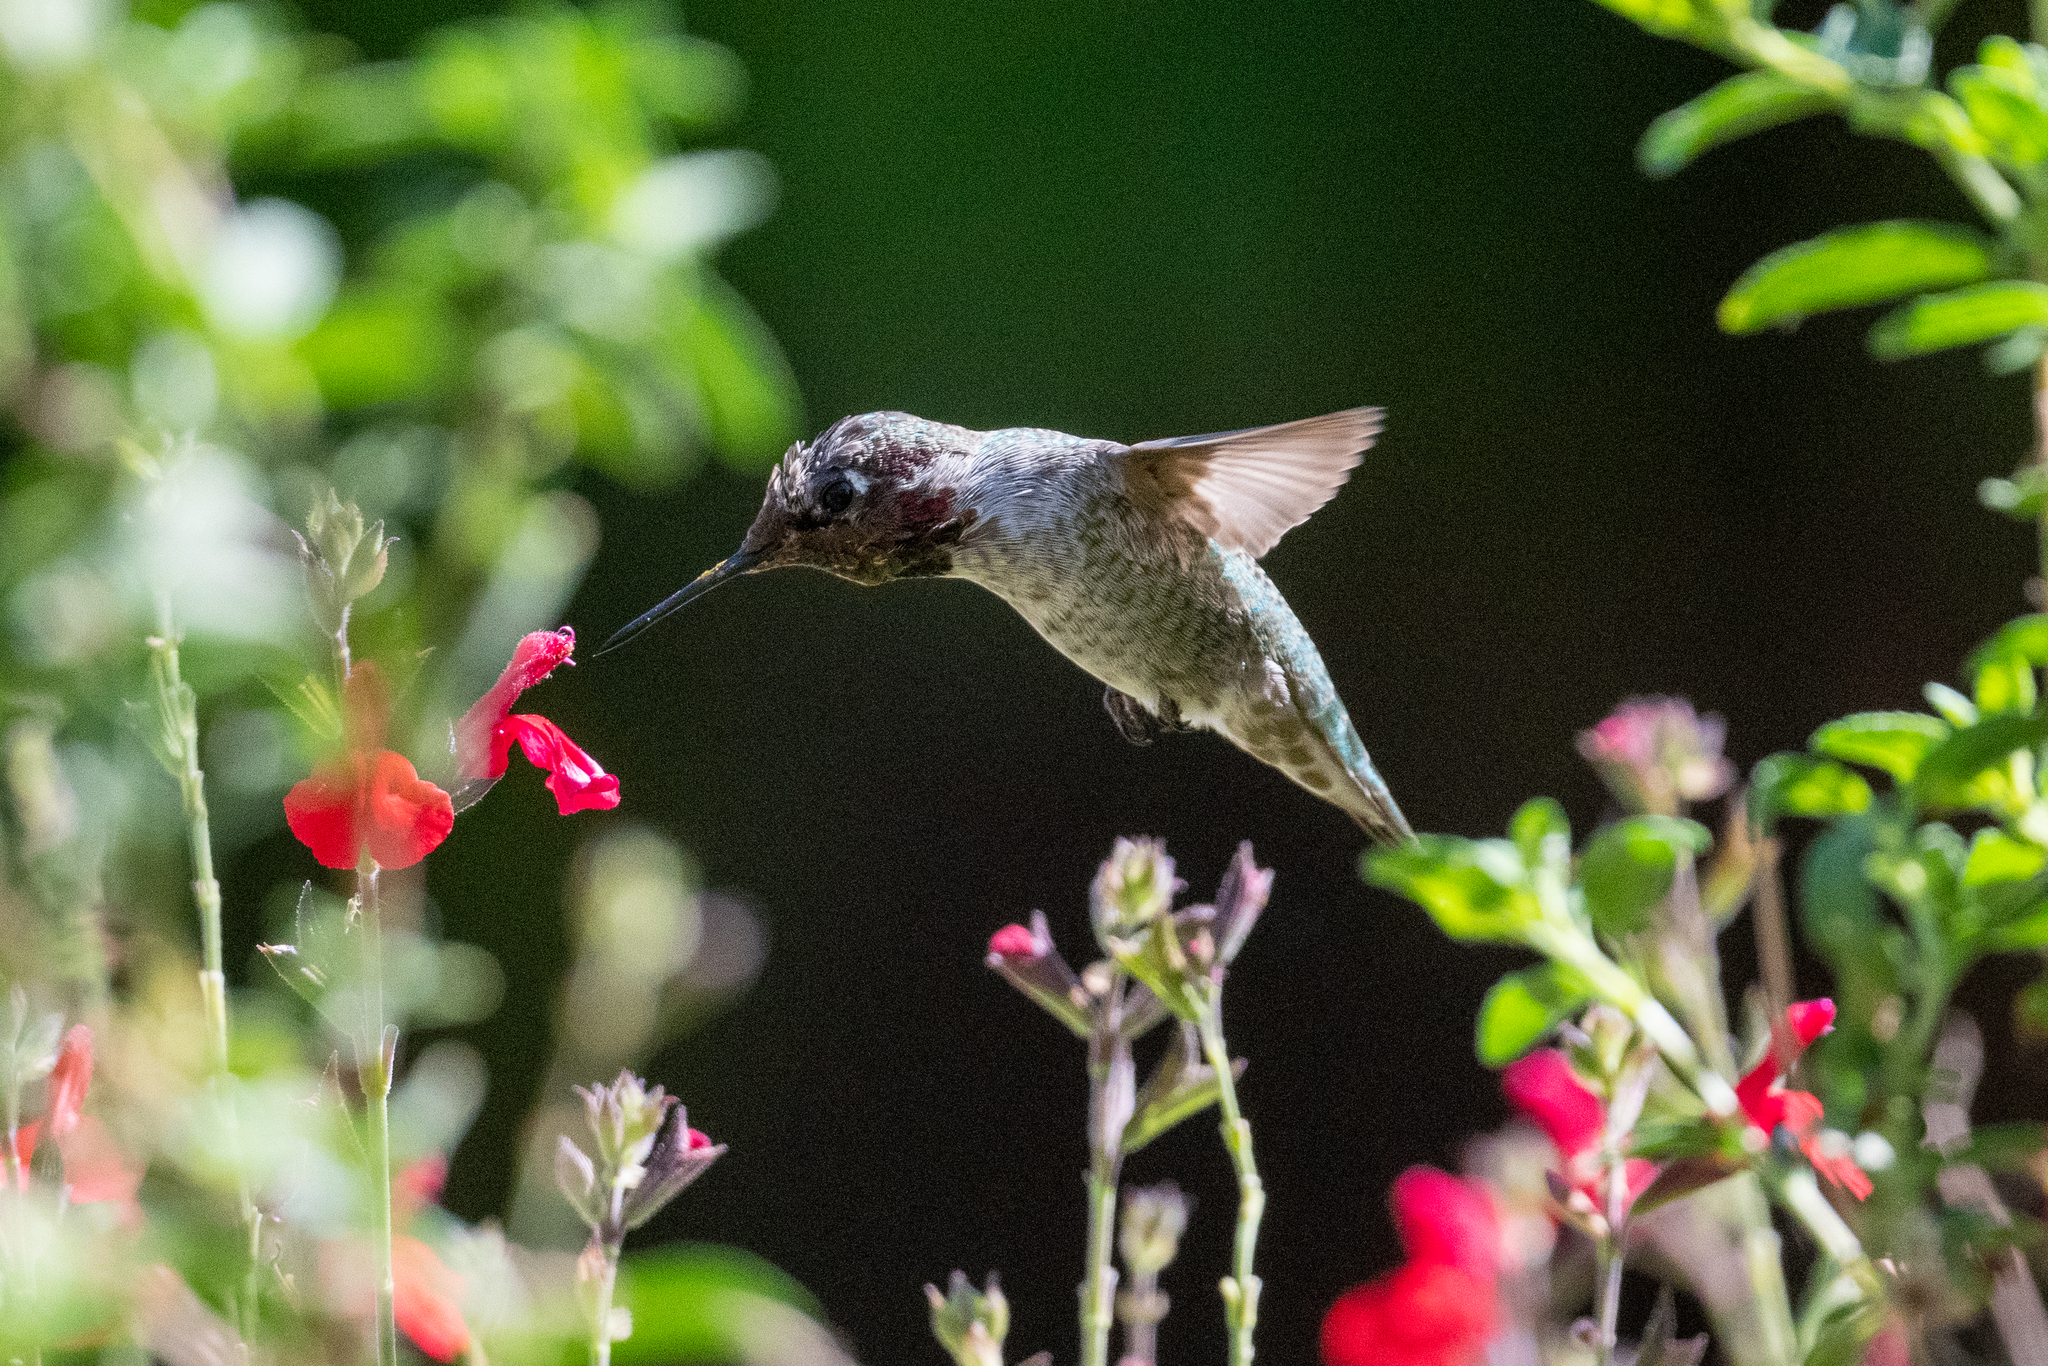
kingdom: Animalia
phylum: Chordata
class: Aves
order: Apodiformes
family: Trochilidae
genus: Calypte
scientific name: Calypte anna
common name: Anna's hummingbird
